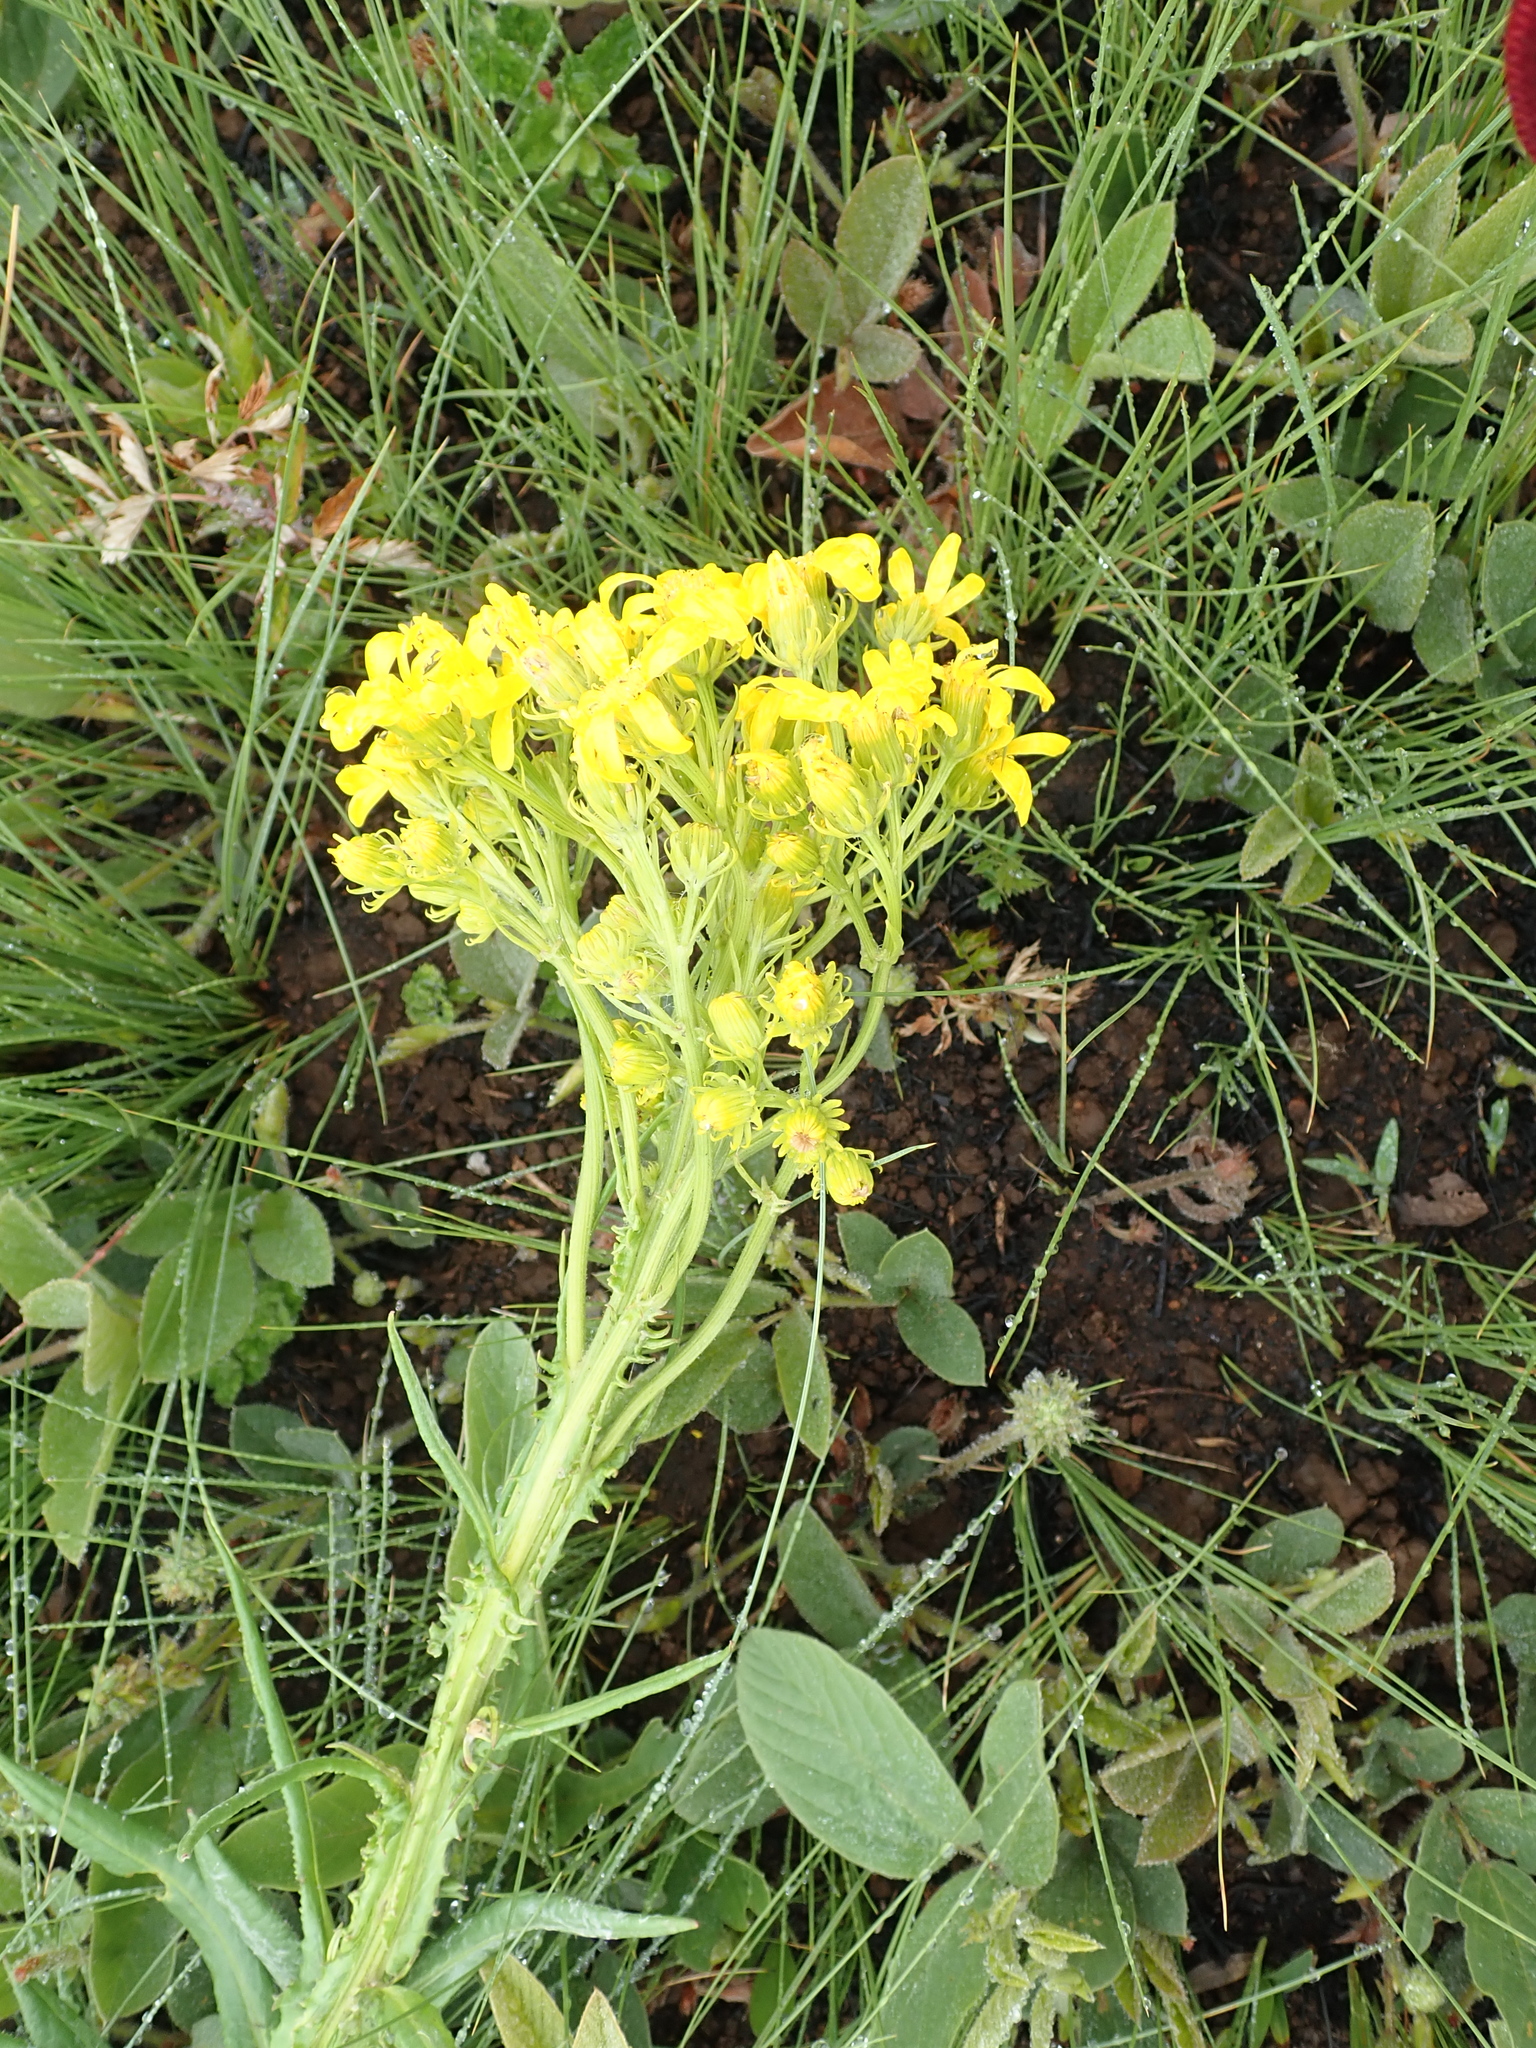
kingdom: Plantae
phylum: Tracheophyta
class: Magnoliopsida
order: Asterales
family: Asteraceae
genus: Senecio
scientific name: Senecio decurrens
